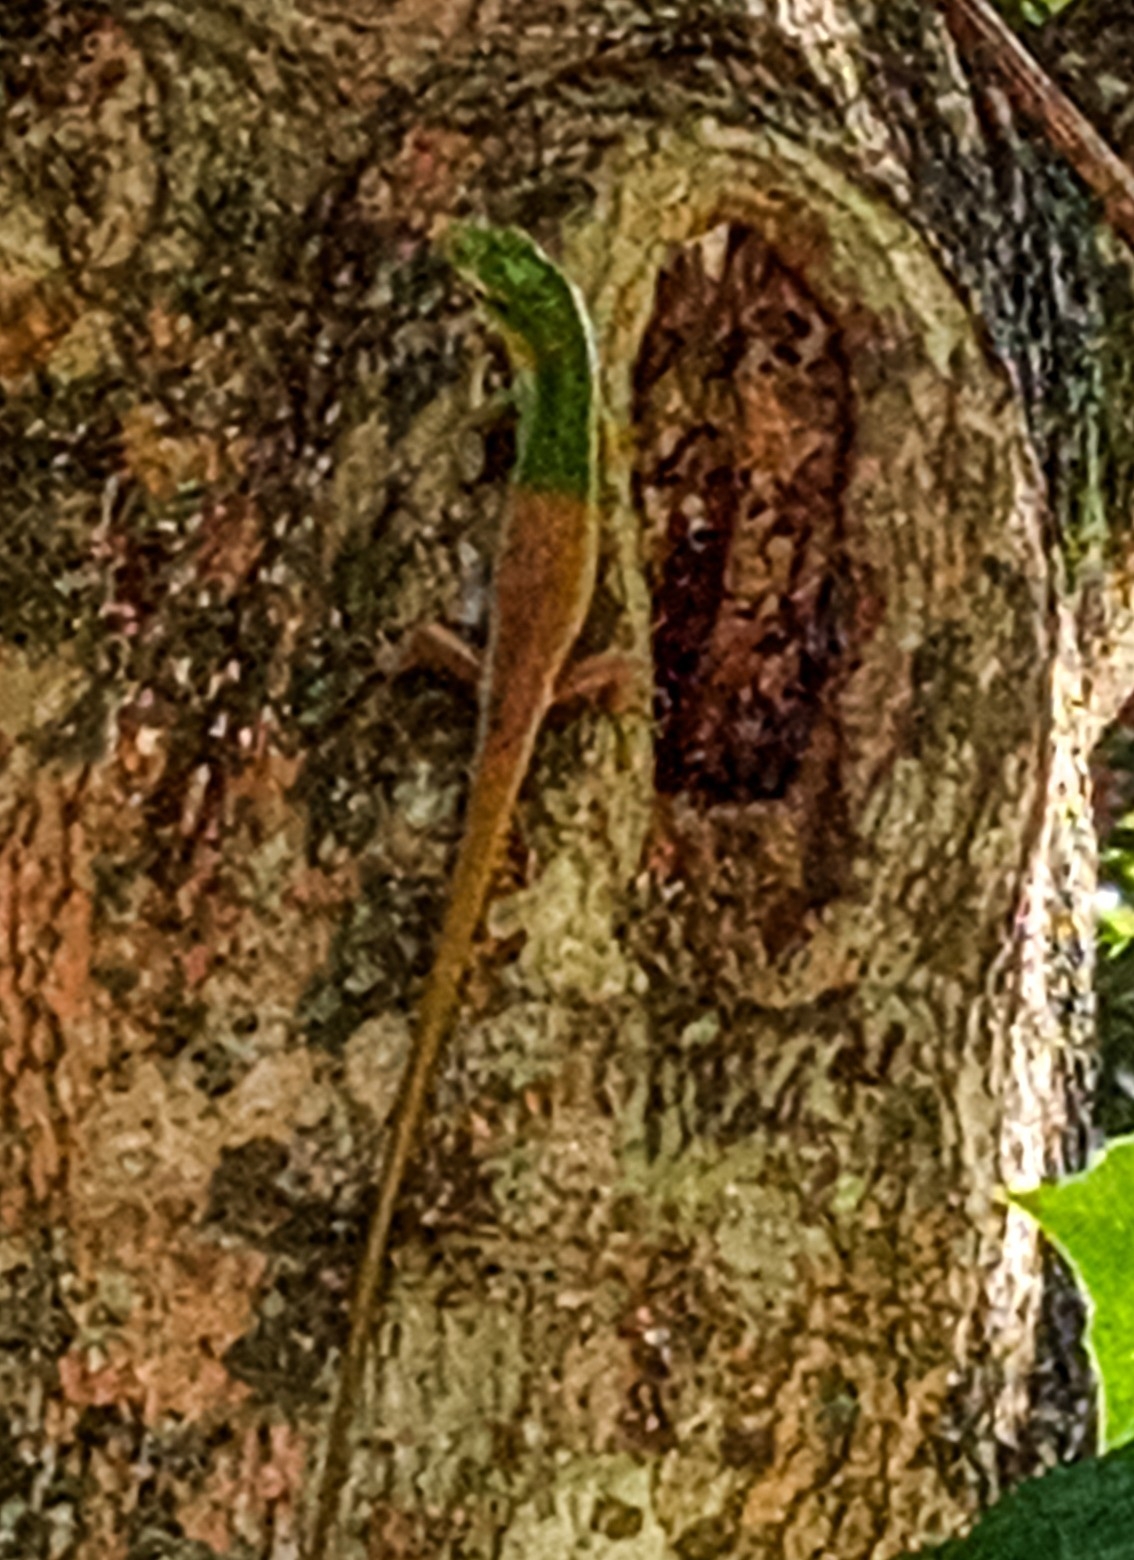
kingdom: Animalia
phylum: Chordata
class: Squamata
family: Scincidae
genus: Lamprolepis
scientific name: Lamprolepis smaragdina
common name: Emerald skink
